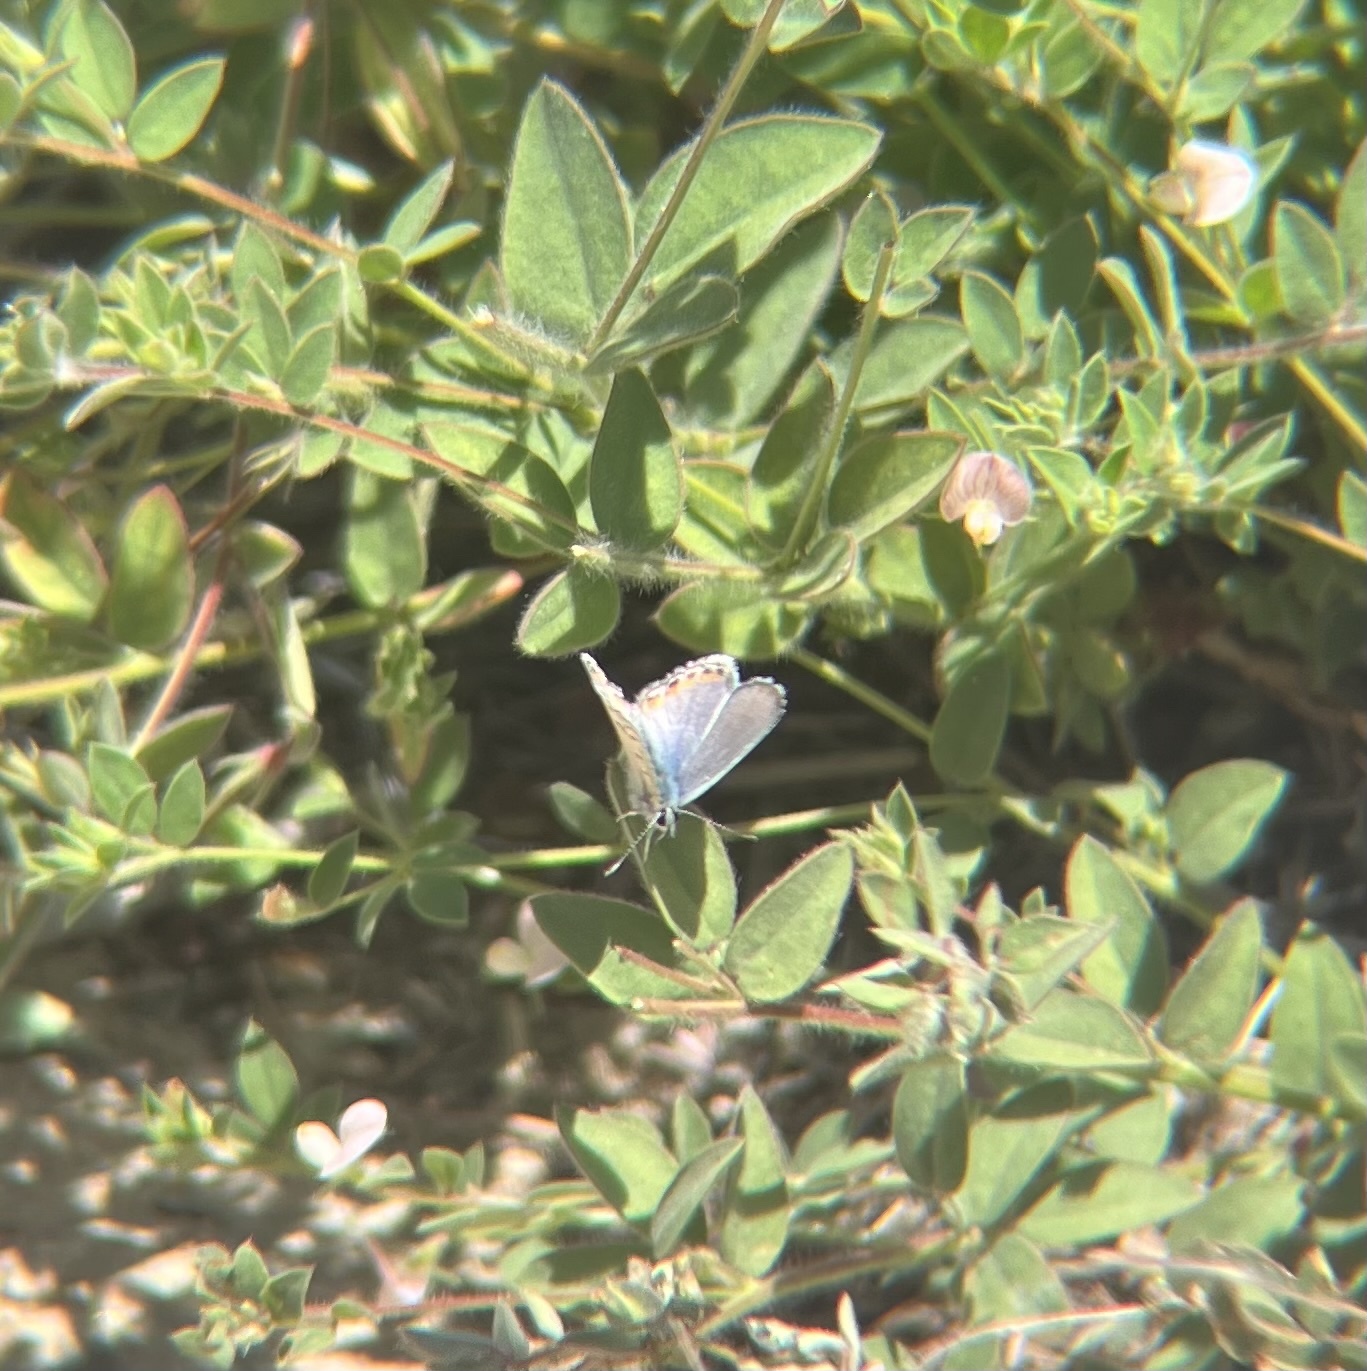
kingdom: Animalia
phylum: Arthropoda
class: Insecta
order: Lepidoptera
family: Lycaenidae
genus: Icaricia
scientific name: Icaricia acmon
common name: Acmon blue
